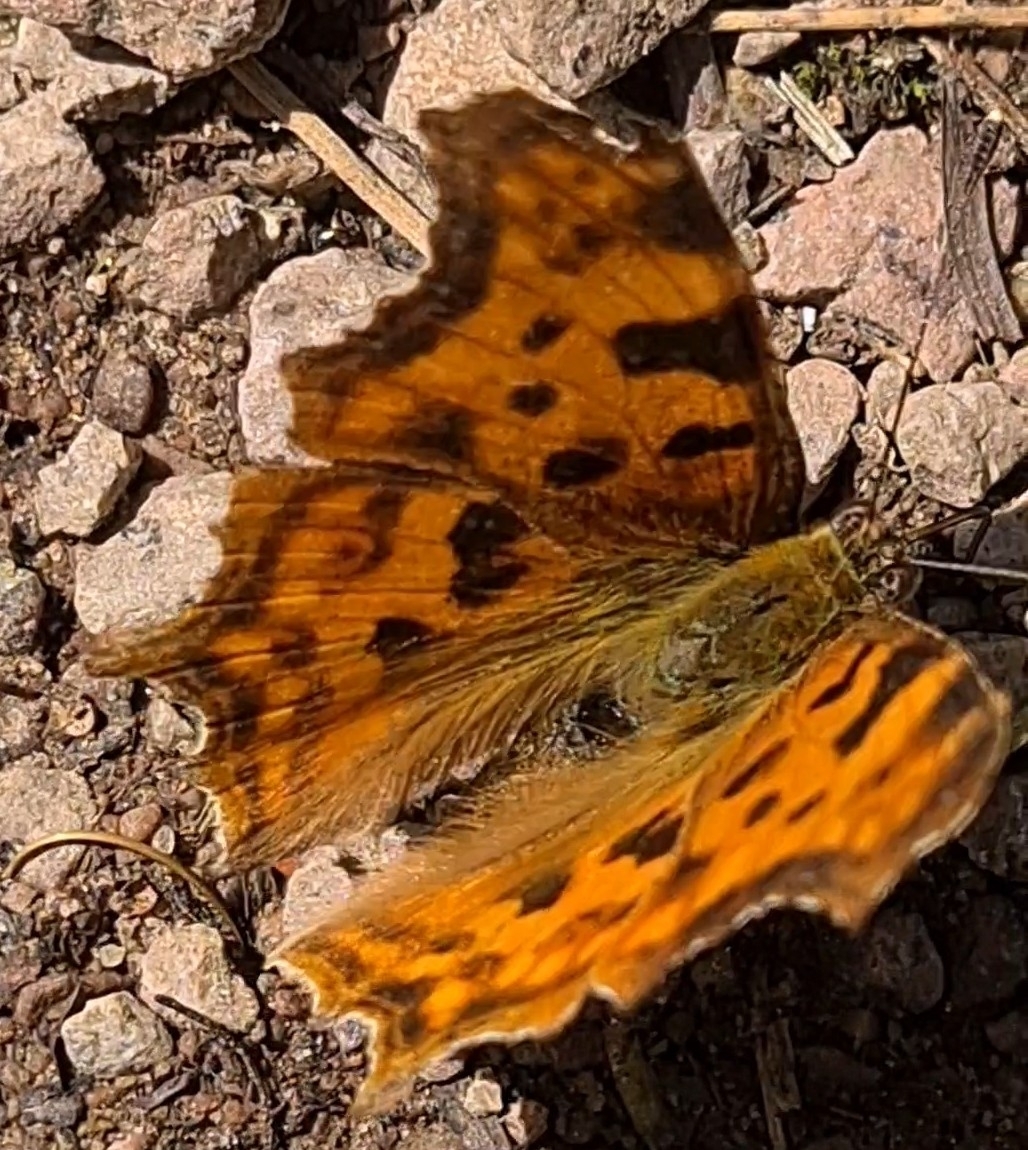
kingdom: Animalia
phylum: Arthropoda
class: Insecta
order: Lepidoptera
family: Nymphalidae
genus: Polygonia
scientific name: Polygonia c-album
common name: Comma
